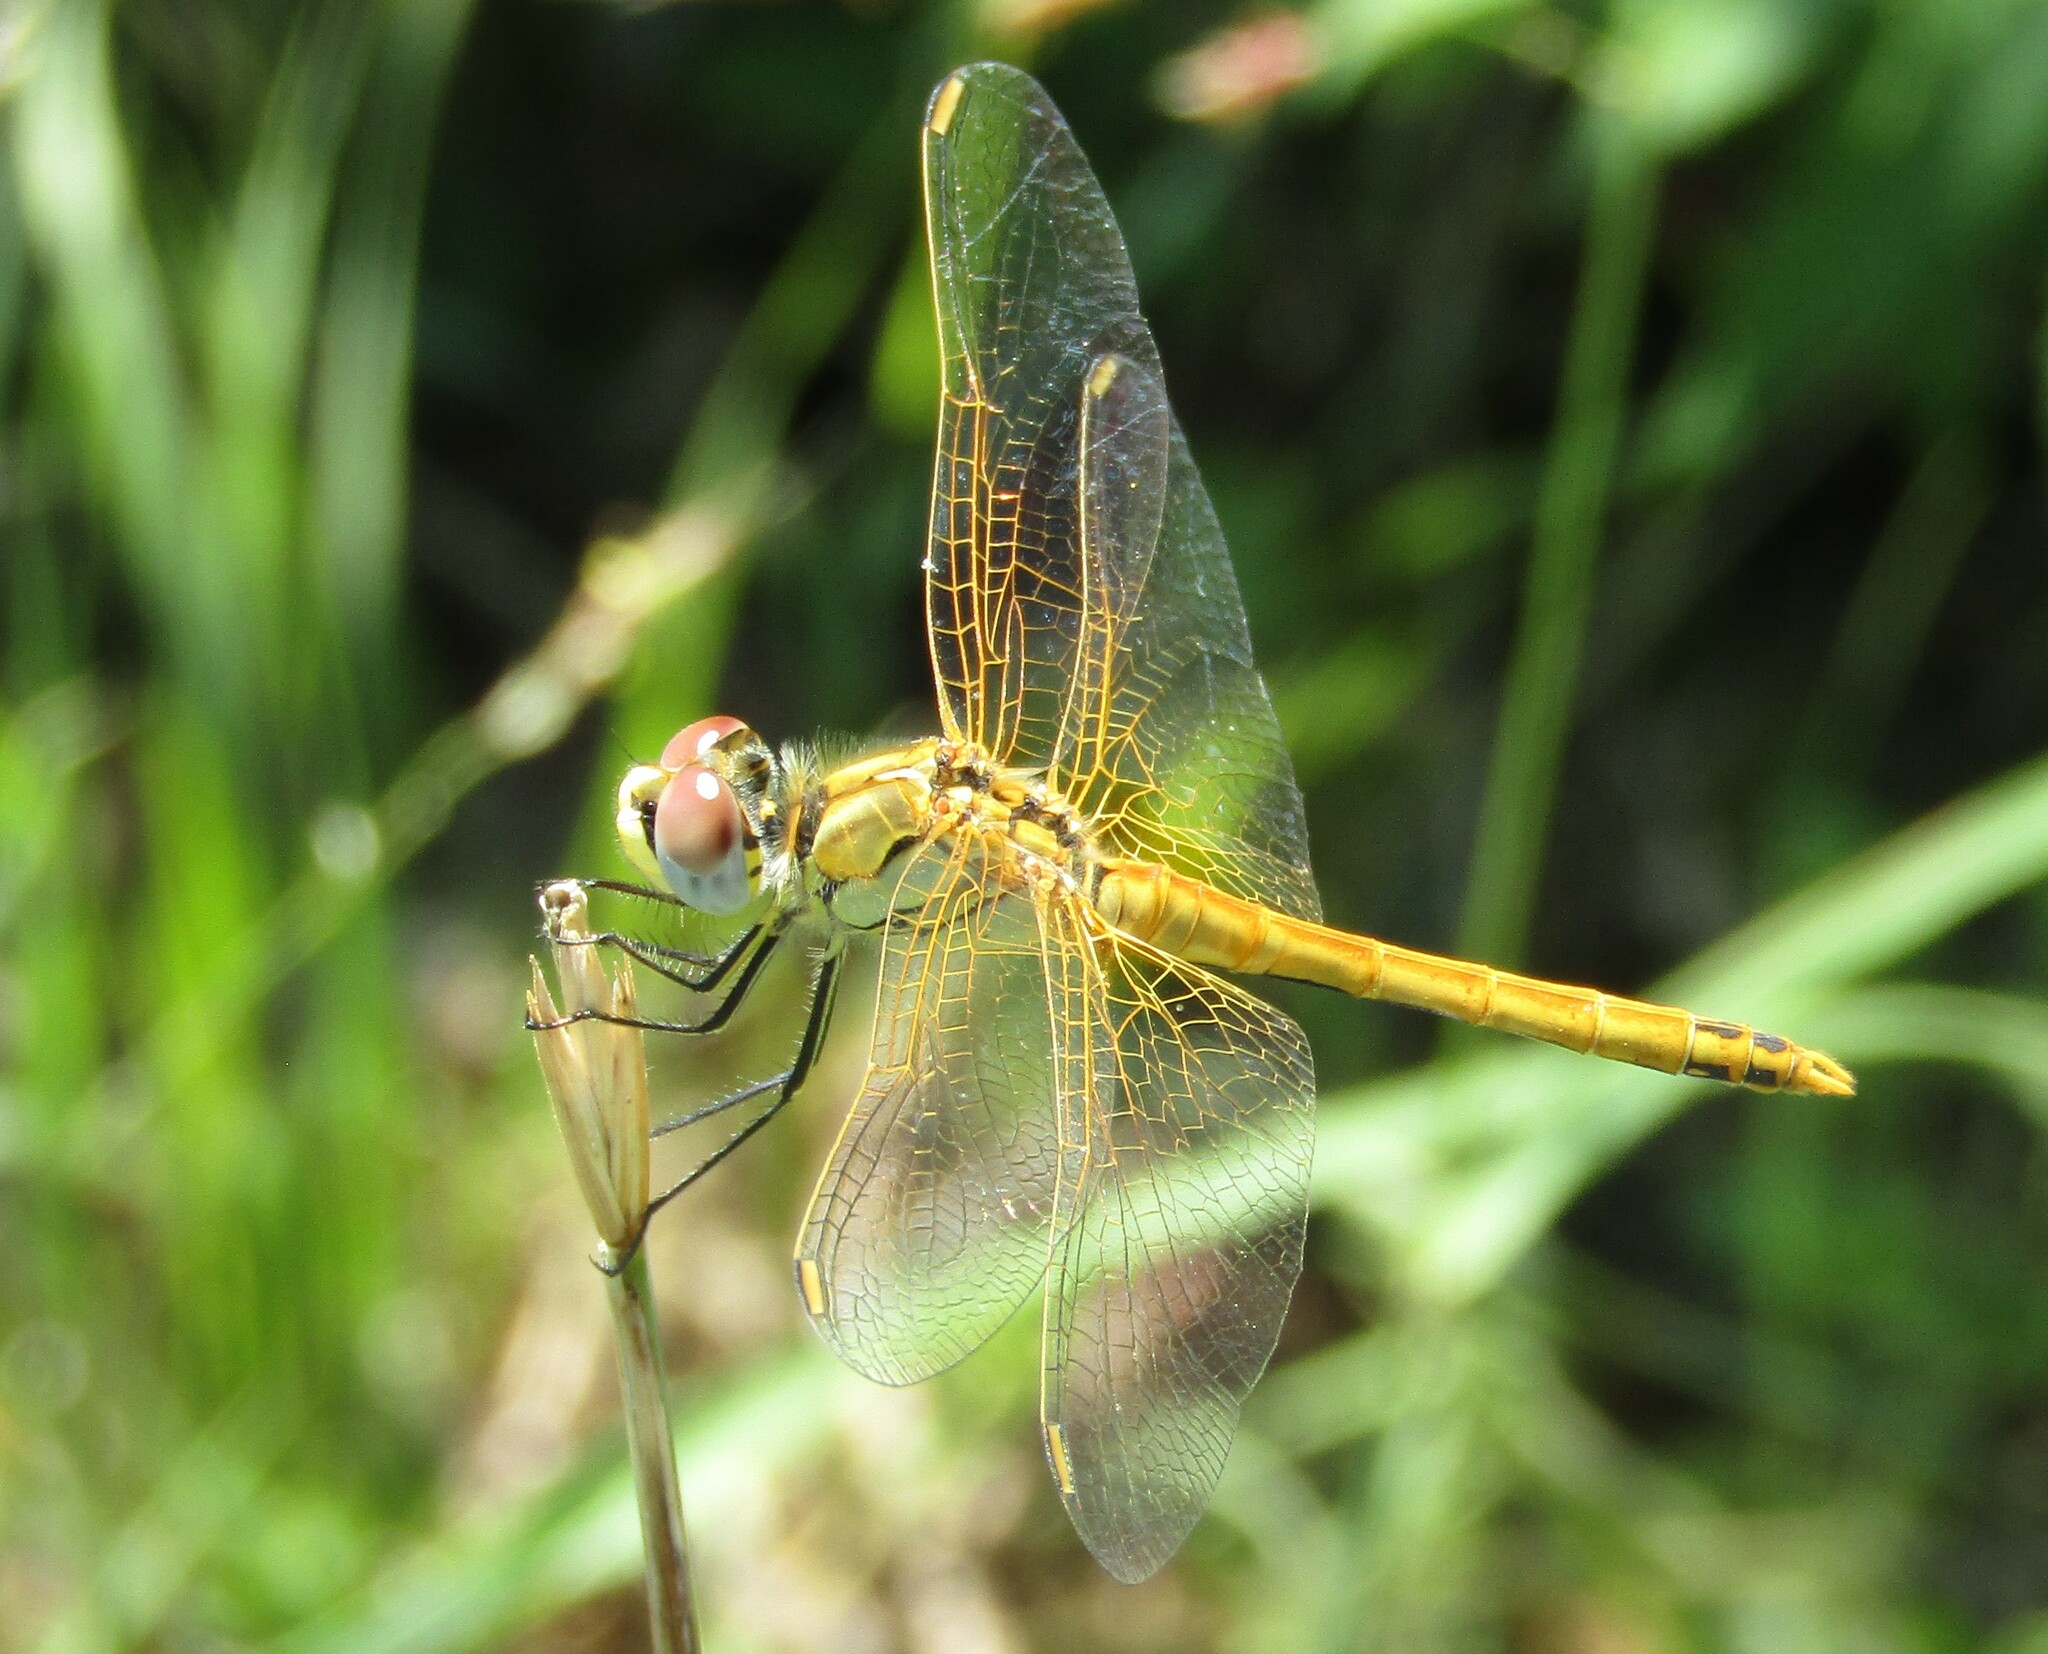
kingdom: Animalia
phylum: Arthropoda
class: Insecta
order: Odonata
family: Libellulidae
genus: Sympetrum
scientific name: Sympetrum fonscolombii
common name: Red-veined darter
